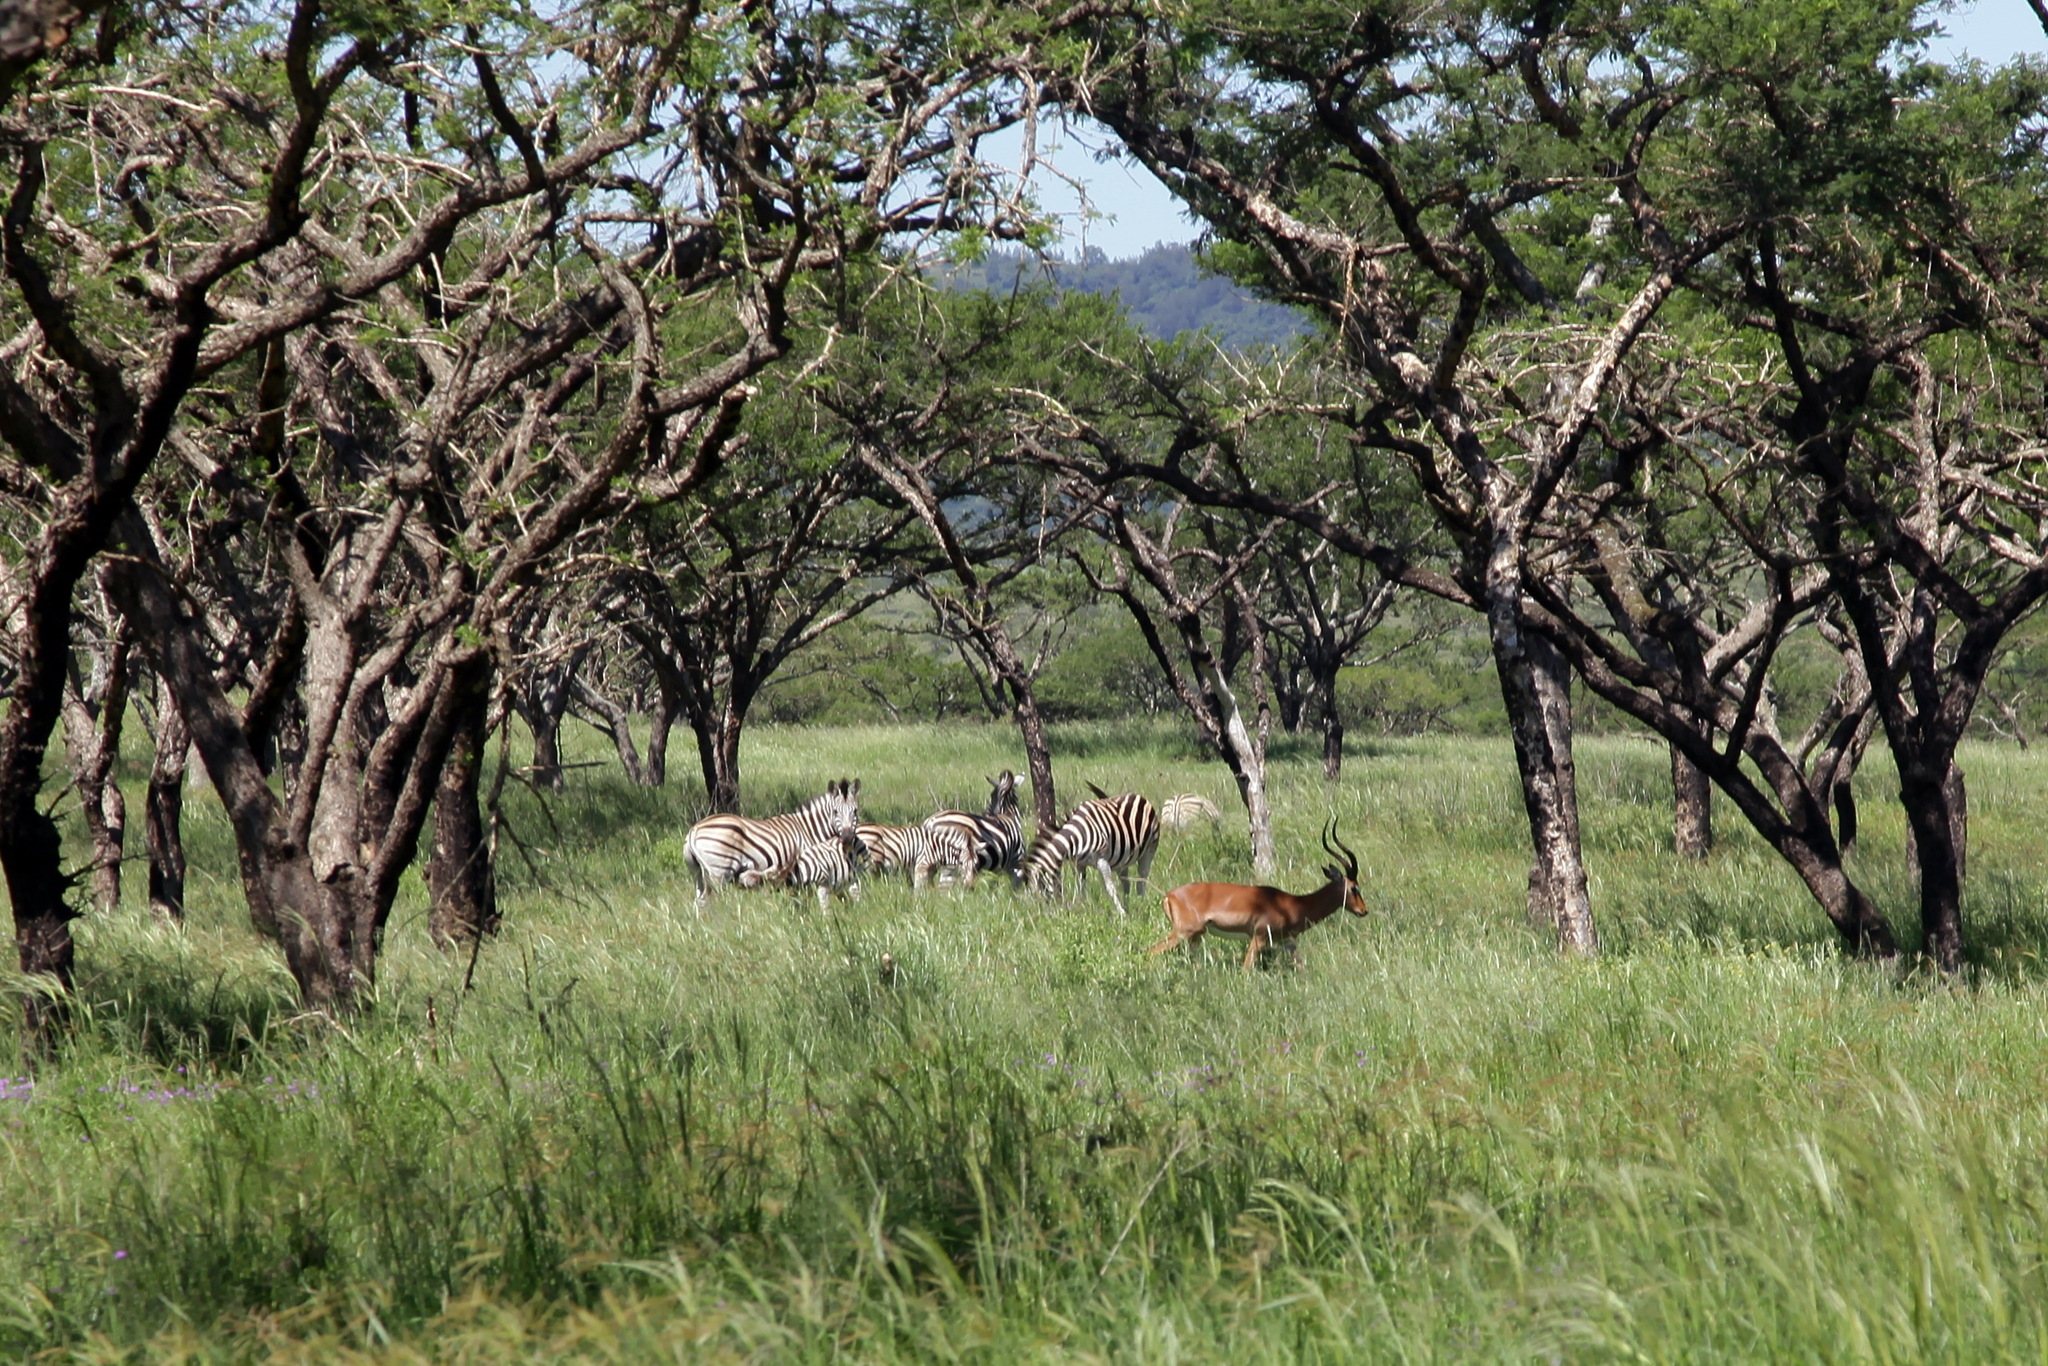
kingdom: Animalia
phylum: Chordata
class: Mammalia
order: Artiodactyla
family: Bovidae
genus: Aepyceros
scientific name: Aepyceros melampus
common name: Impala
